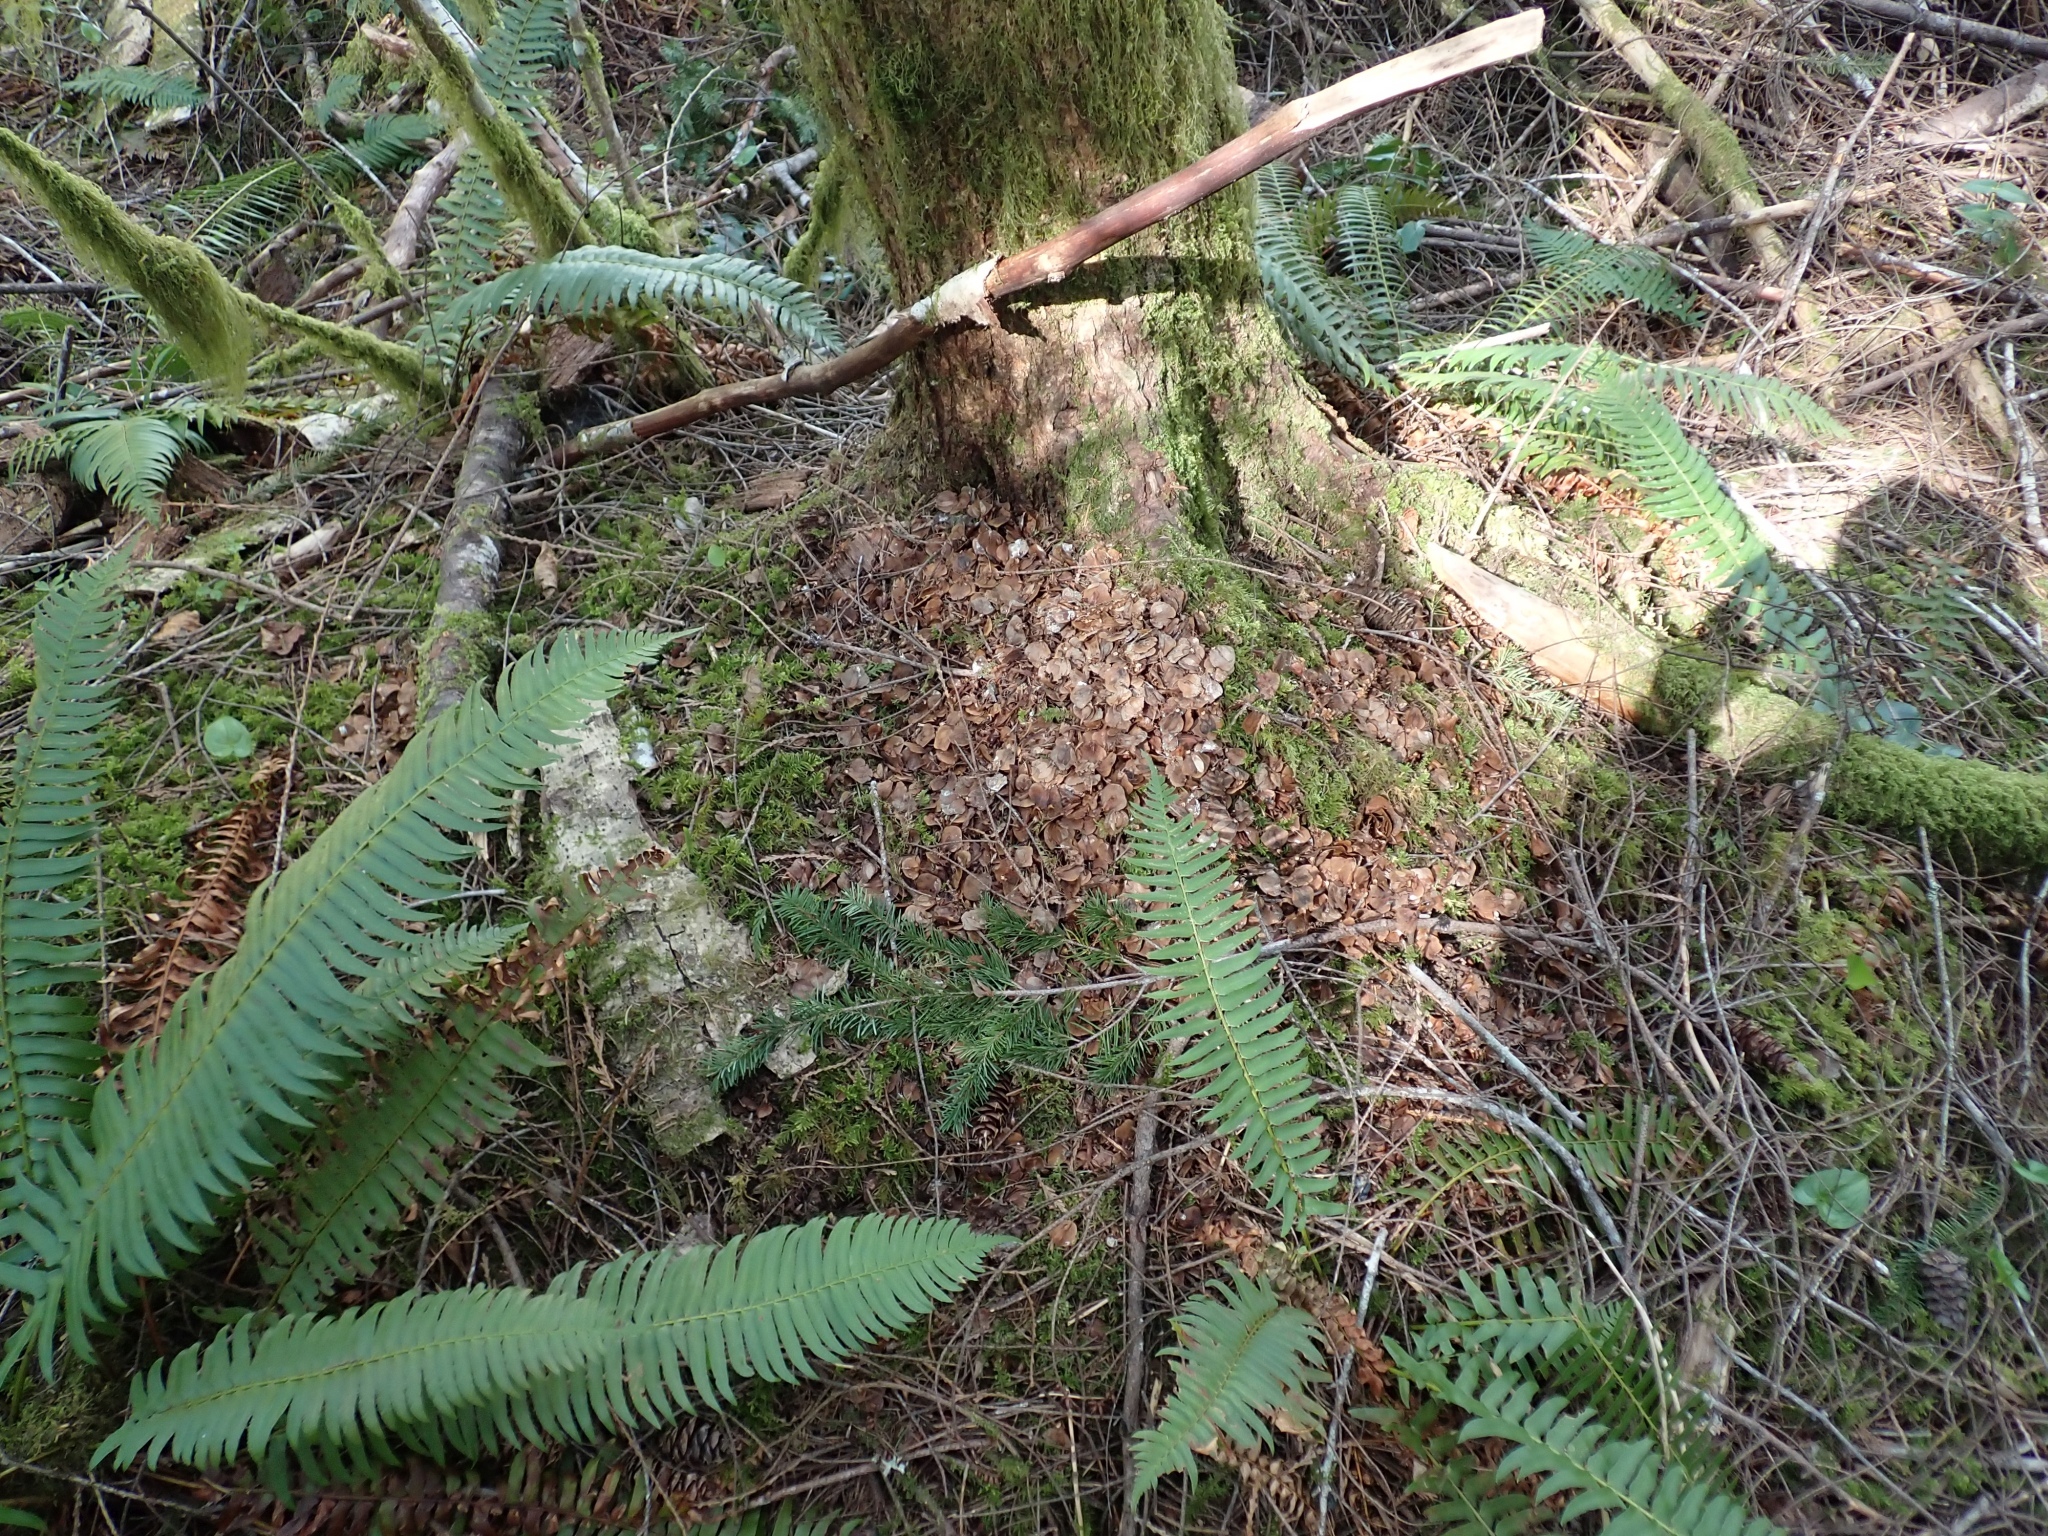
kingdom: Animalia
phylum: Chordata
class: Mammalia
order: Rodentia
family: Sciuridae
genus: Tamiasciurus
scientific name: Tamiasciurus hudsonicus
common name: Red squirrel
